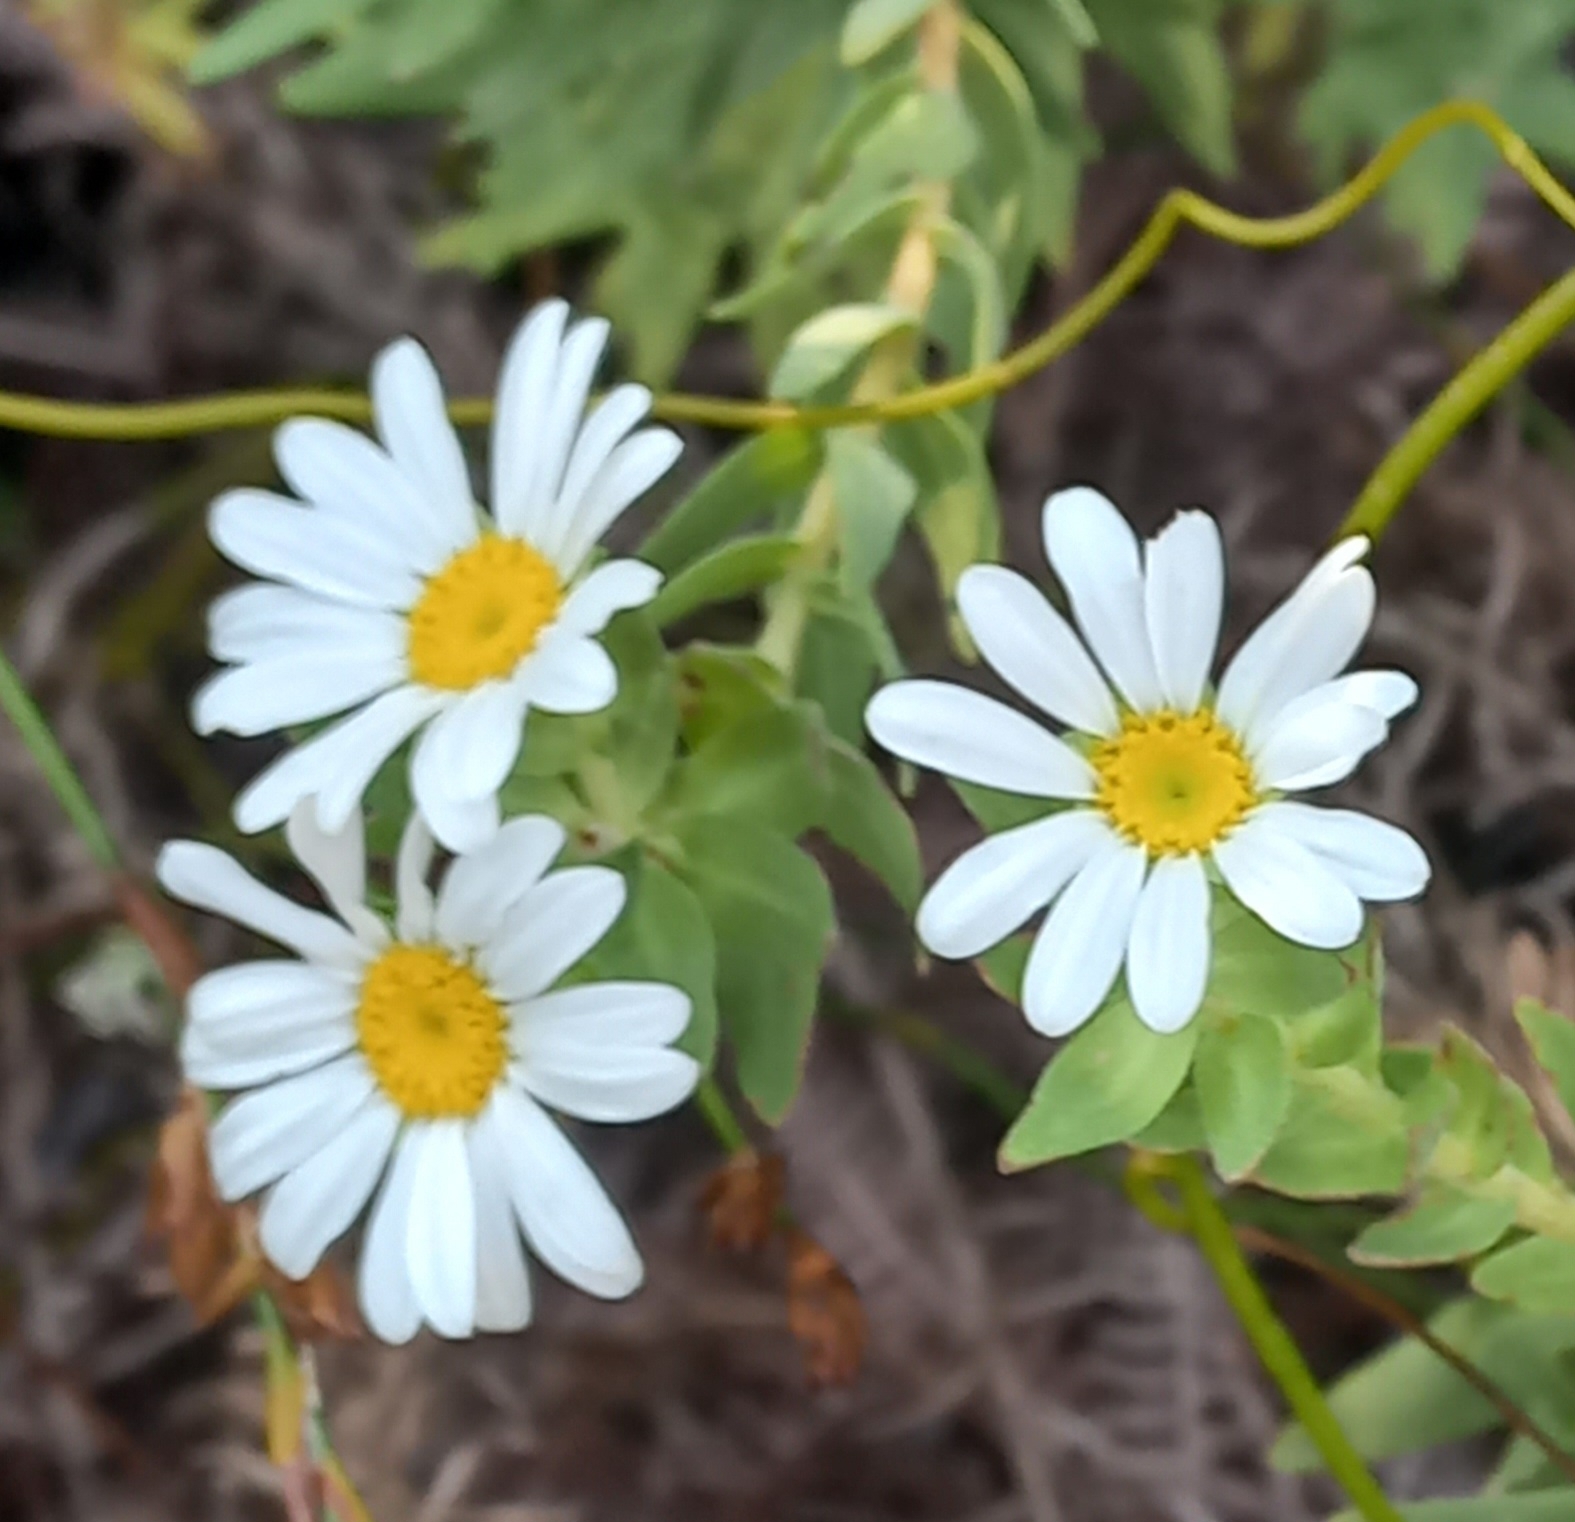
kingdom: Plantae
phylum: Tracheophyta
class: Magnoliopsida
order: Asterales
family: Asteraceae
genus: Osmitopsis
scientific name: Osmitopsis asteriscoides
